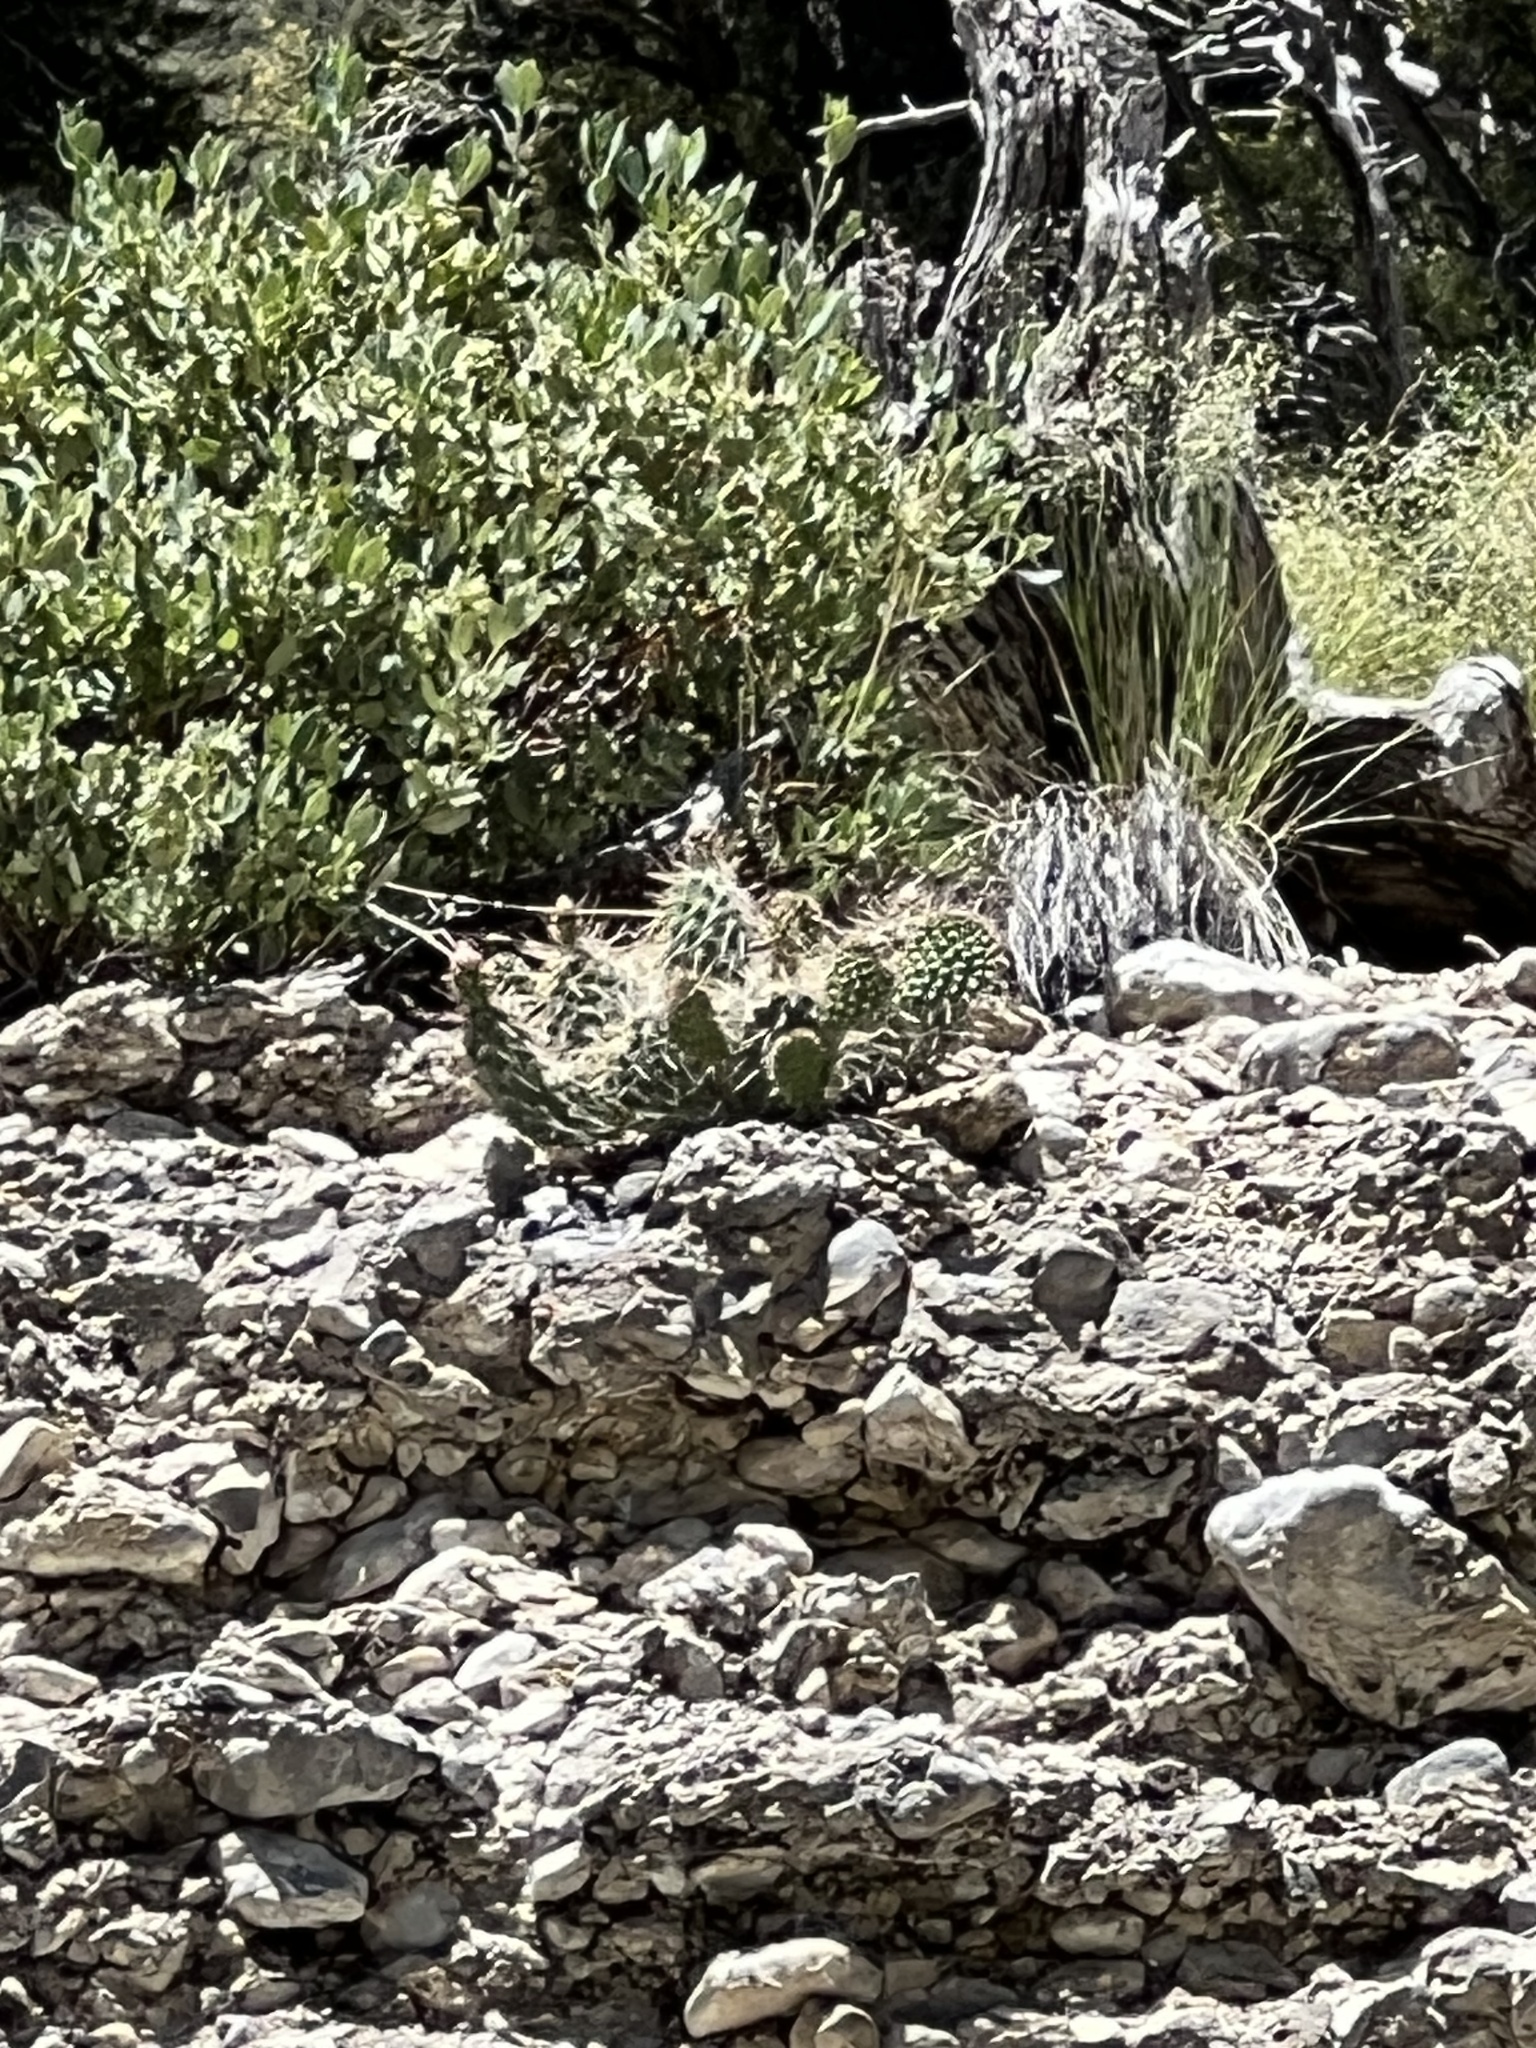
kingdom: Plantae
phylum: Tracheophyta
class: Magnoliopsida
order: Caryophyllales
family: Cactaceae
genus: Opuntia
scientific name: Opuntia charlestonensis
